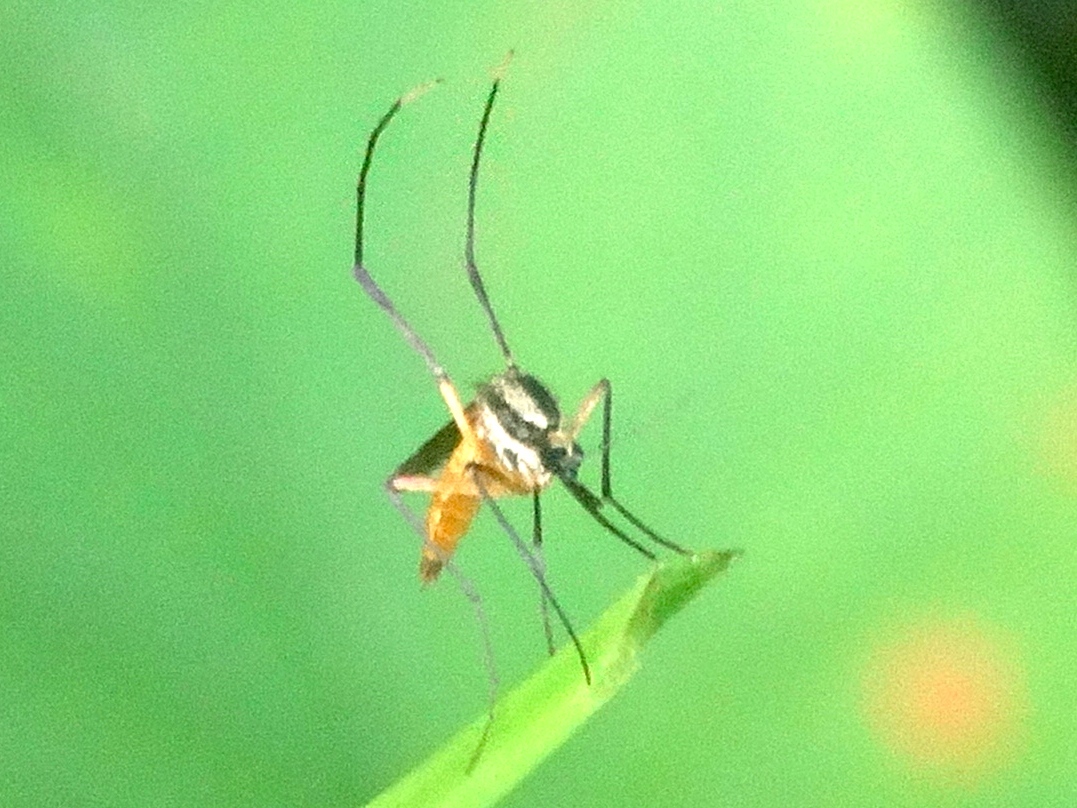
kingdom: Animalia
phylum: Arthropoda
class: Insecta
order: Diptera
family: Culicidae
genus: Psorophora
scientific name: Psorophora longipalpus
